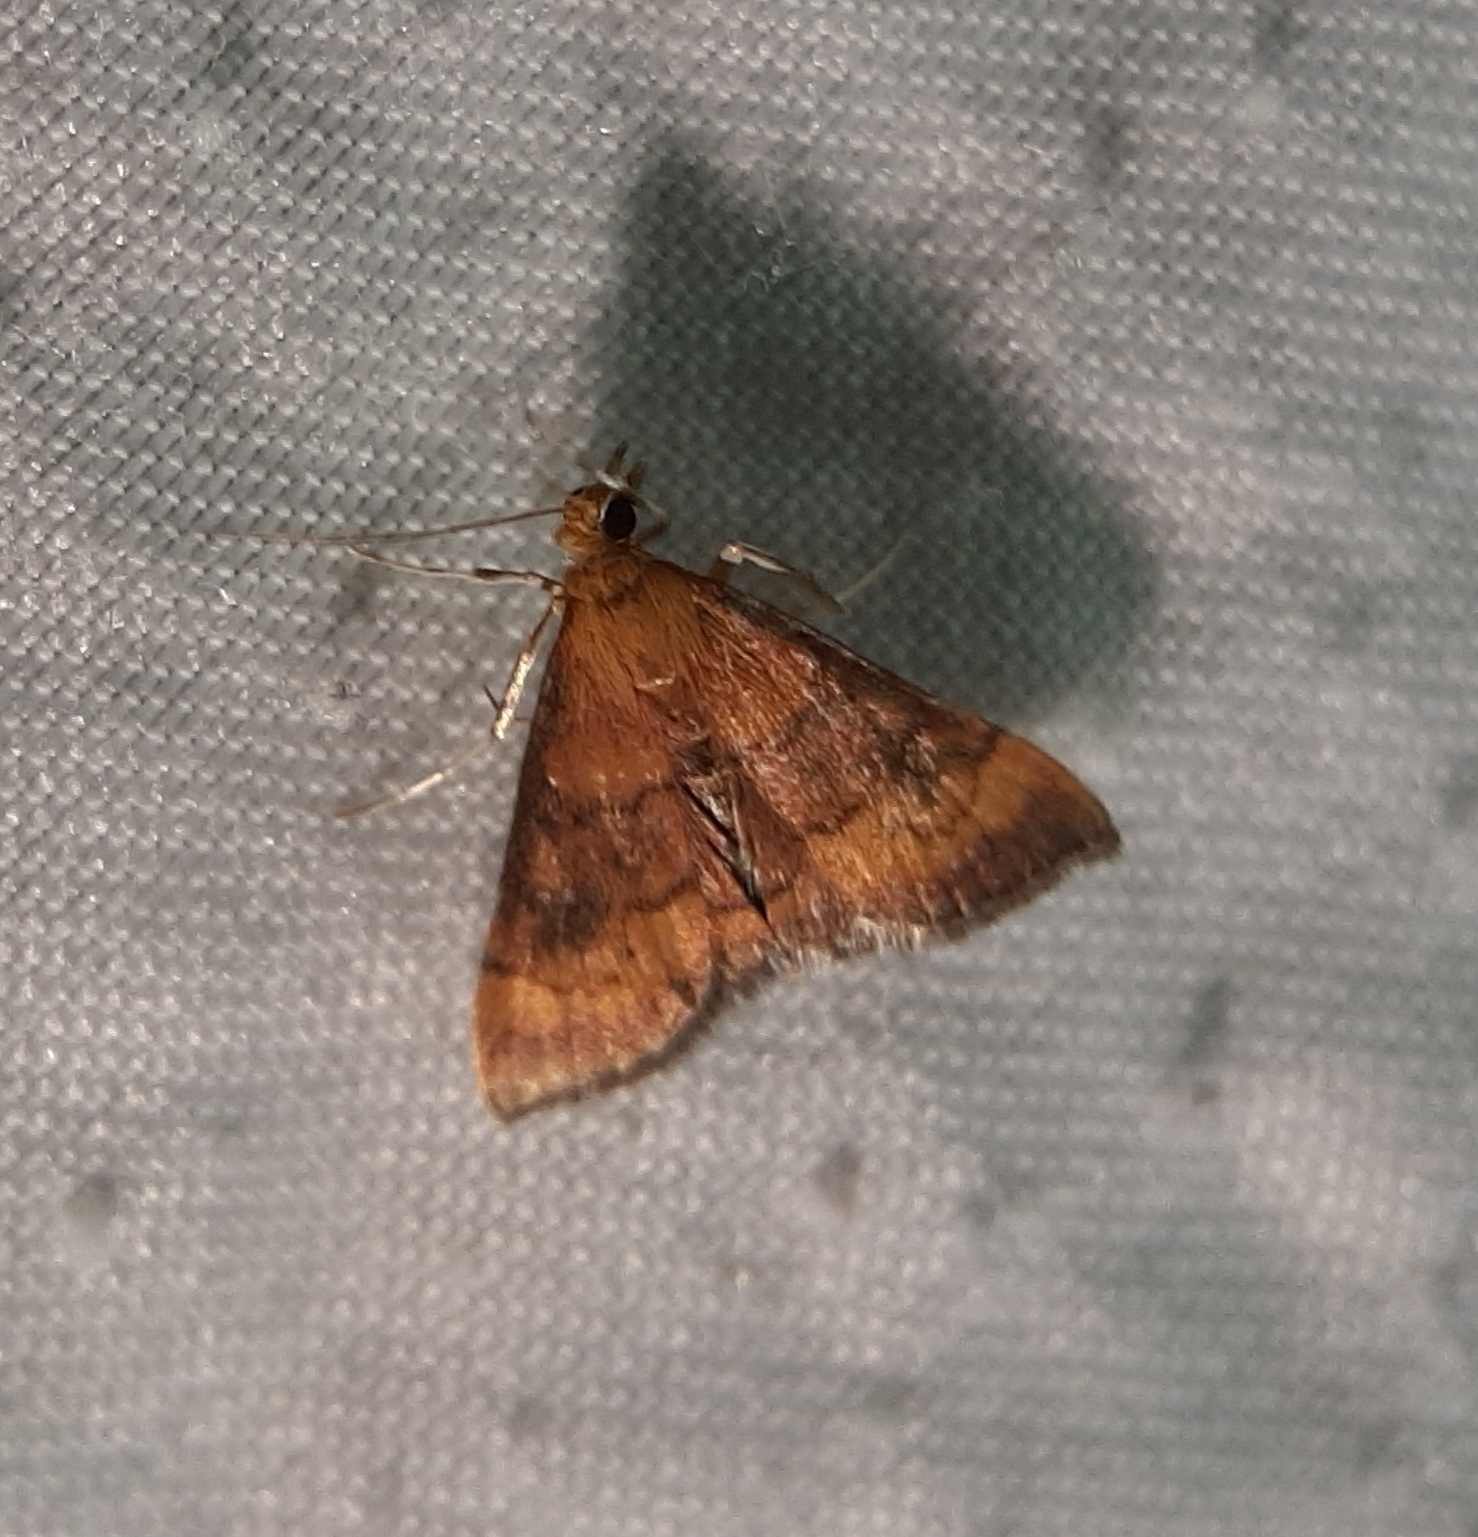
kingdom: Animalia
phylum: Arthropoda
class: Insecta
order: Lepidoptera
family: Crambidae
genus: Pyrausta
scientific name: Pyrausta rubricalis
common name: Variable reddish pyrausta
